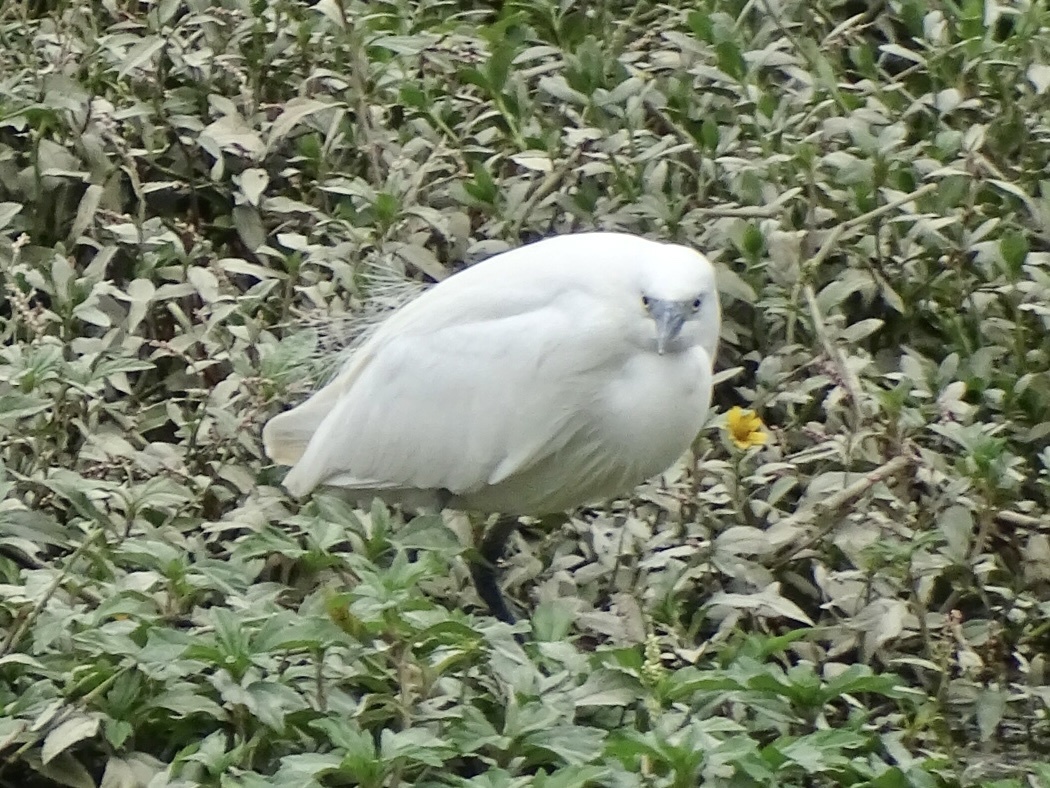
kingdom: Animalia
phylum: Chordata
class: Aves
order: Pelecaniformes
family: Ardeidae
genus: Egretta
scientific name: Egretta garzetta
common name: Little egret
